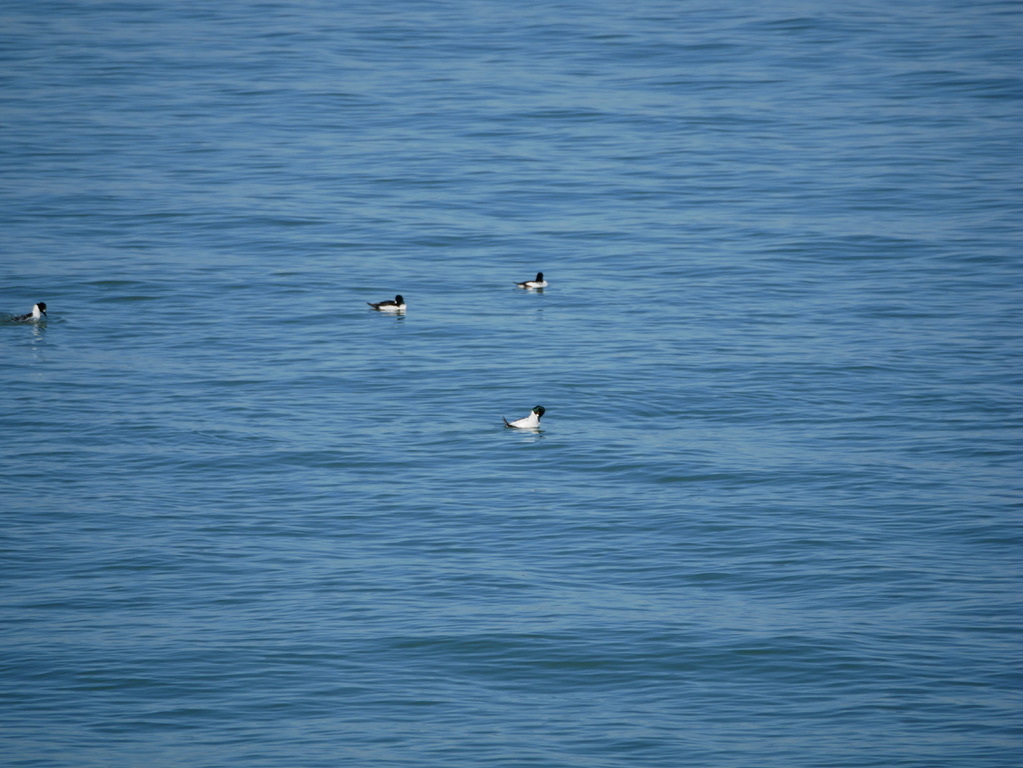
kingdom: Animalia
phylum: Chordata
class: Aves
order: Anseriformes
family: Anatidae
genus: Bucephala
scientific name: Bucephala clangula
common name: Common goldeneye
